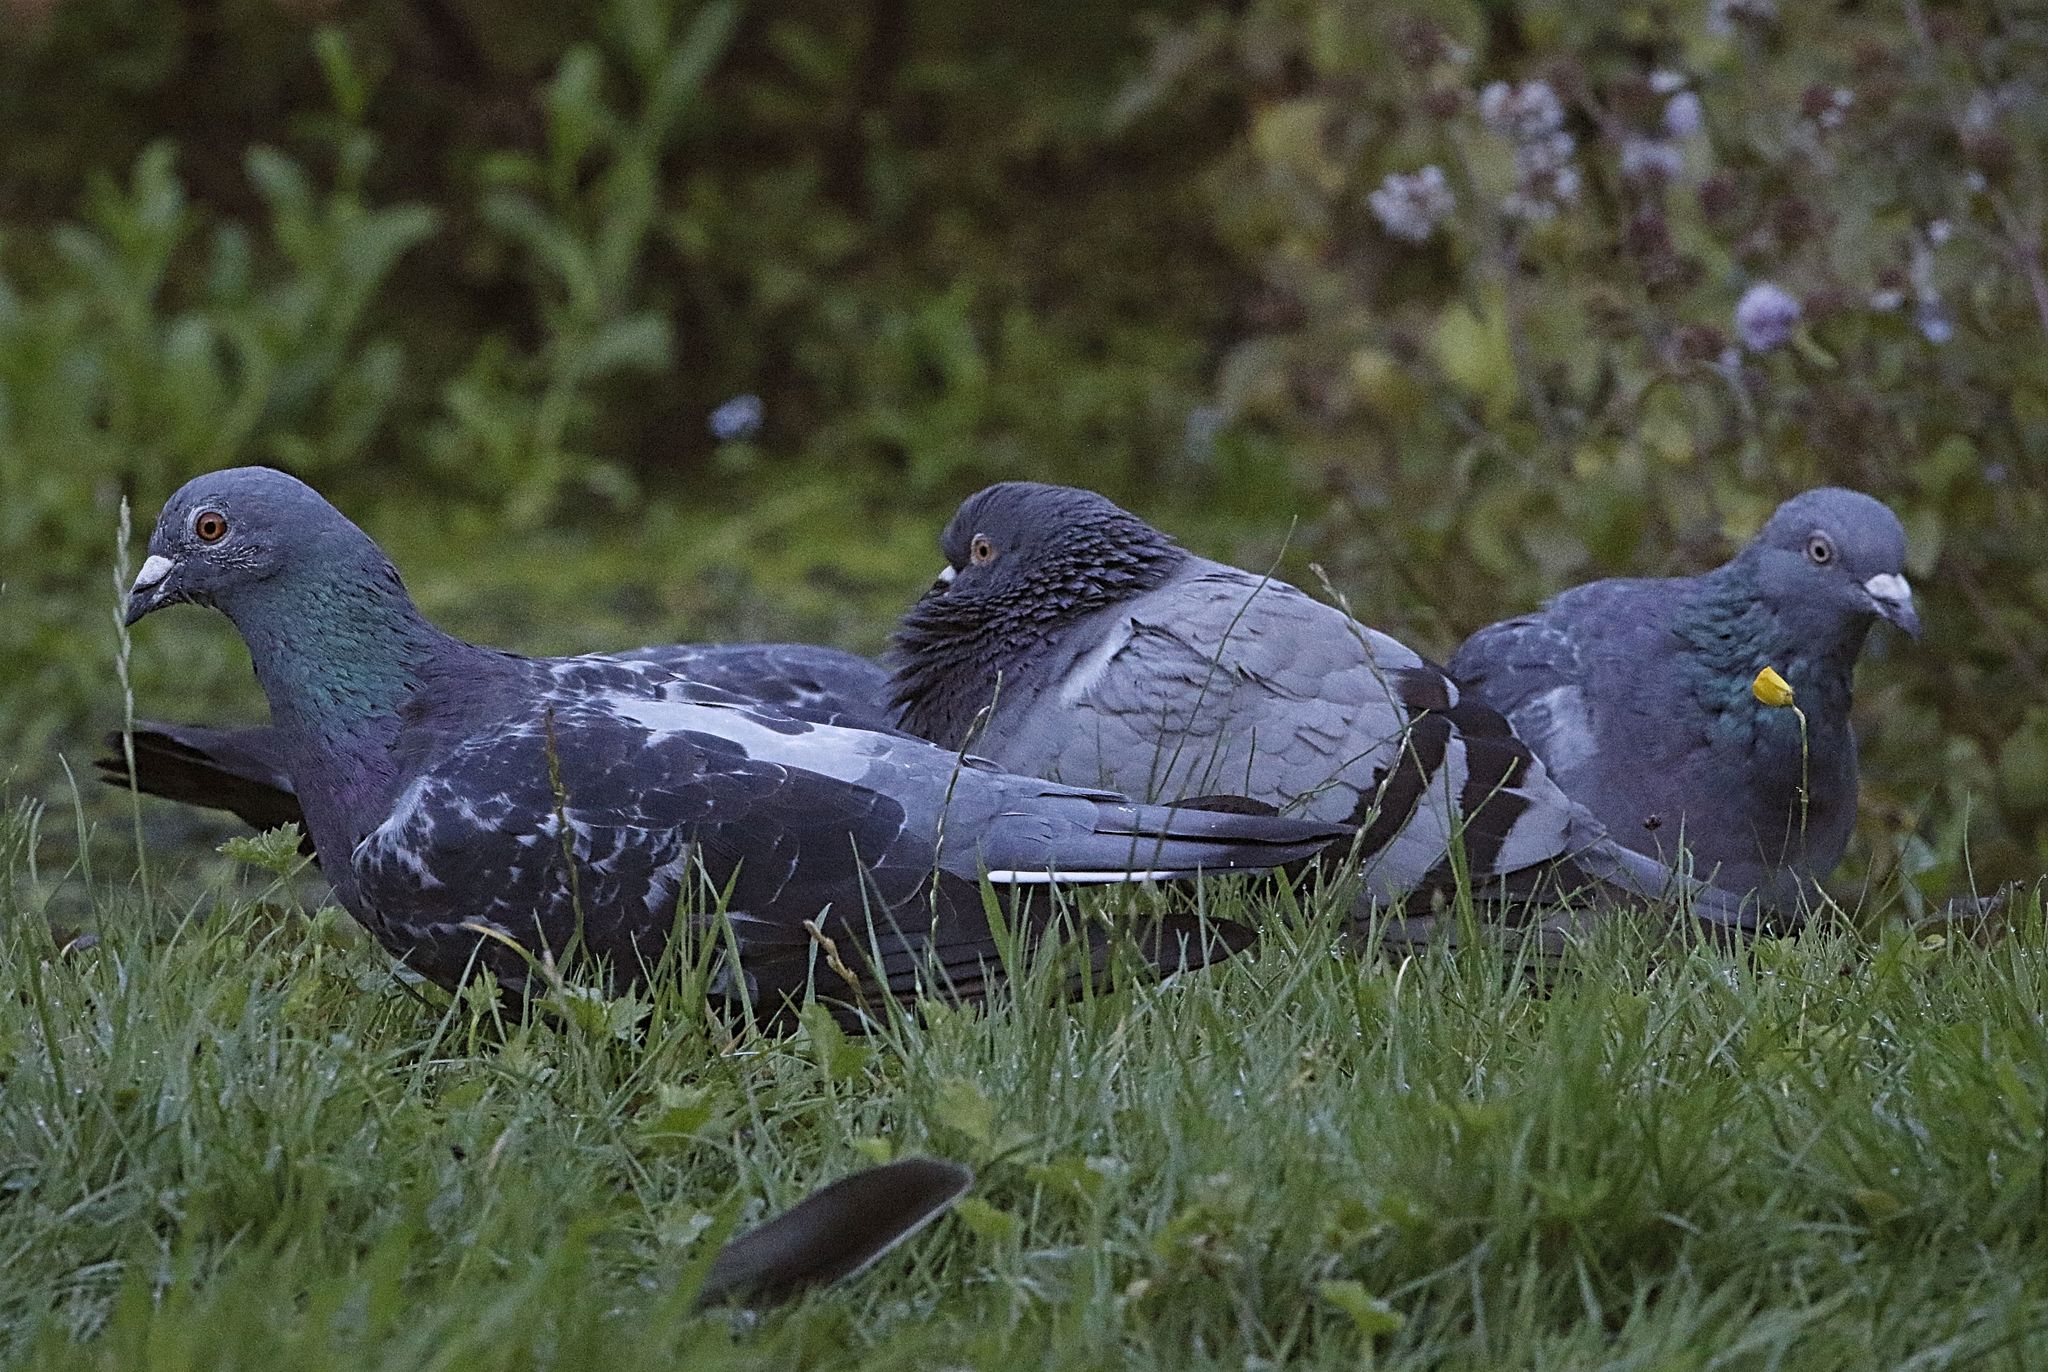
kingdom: Animalia
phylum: Chordata
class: Aves
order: Columbiformes
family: Columbidae
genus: Columba
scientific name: Columba livia
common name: Rock pigeon
